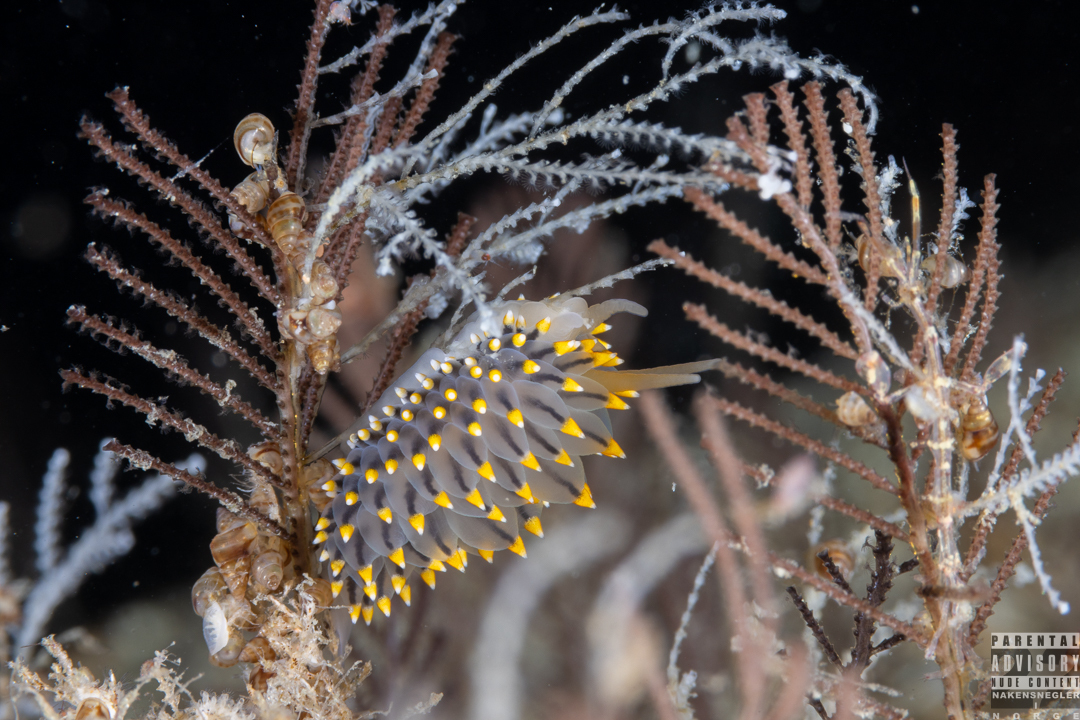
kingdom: Animalia
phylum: Mollusca
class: Gastropoda
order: Nudibranchia
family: Eubranchidae
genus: Eubranchus
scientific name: Eubranchus tricolor
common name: Painted balloon aeolis
